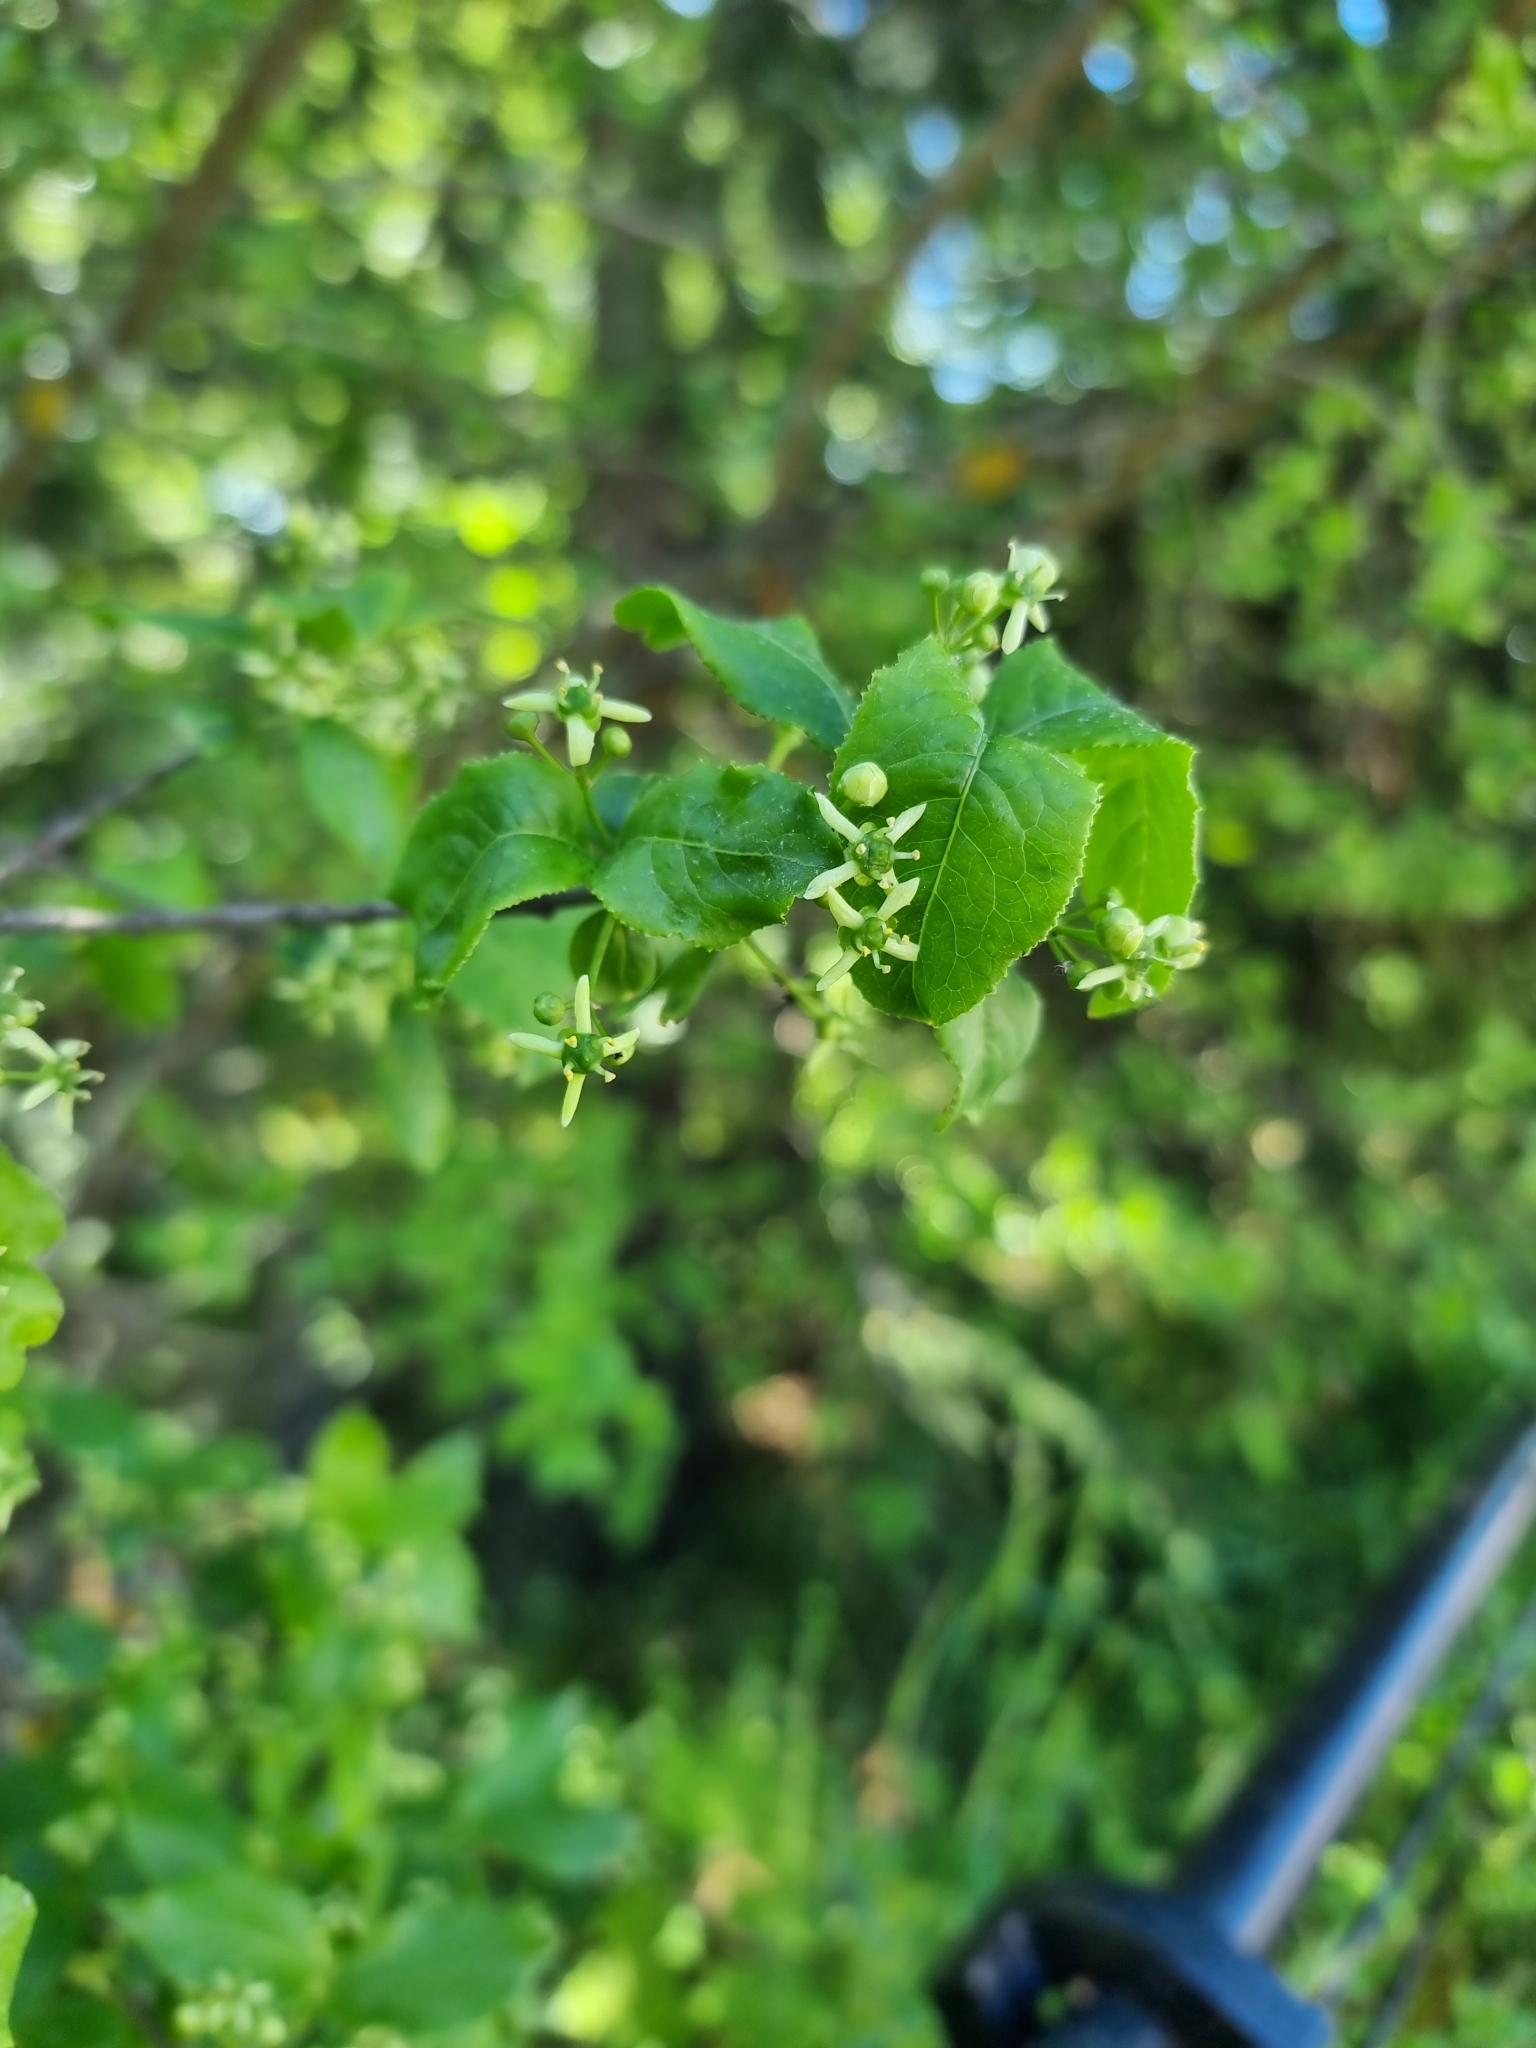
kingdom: Plantae
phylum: Tracheophyta
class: Magnoliopsida
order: Celastrales
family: Celastraceae
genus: Euonymus
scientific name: Euonymus europaeus
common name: Spindle
